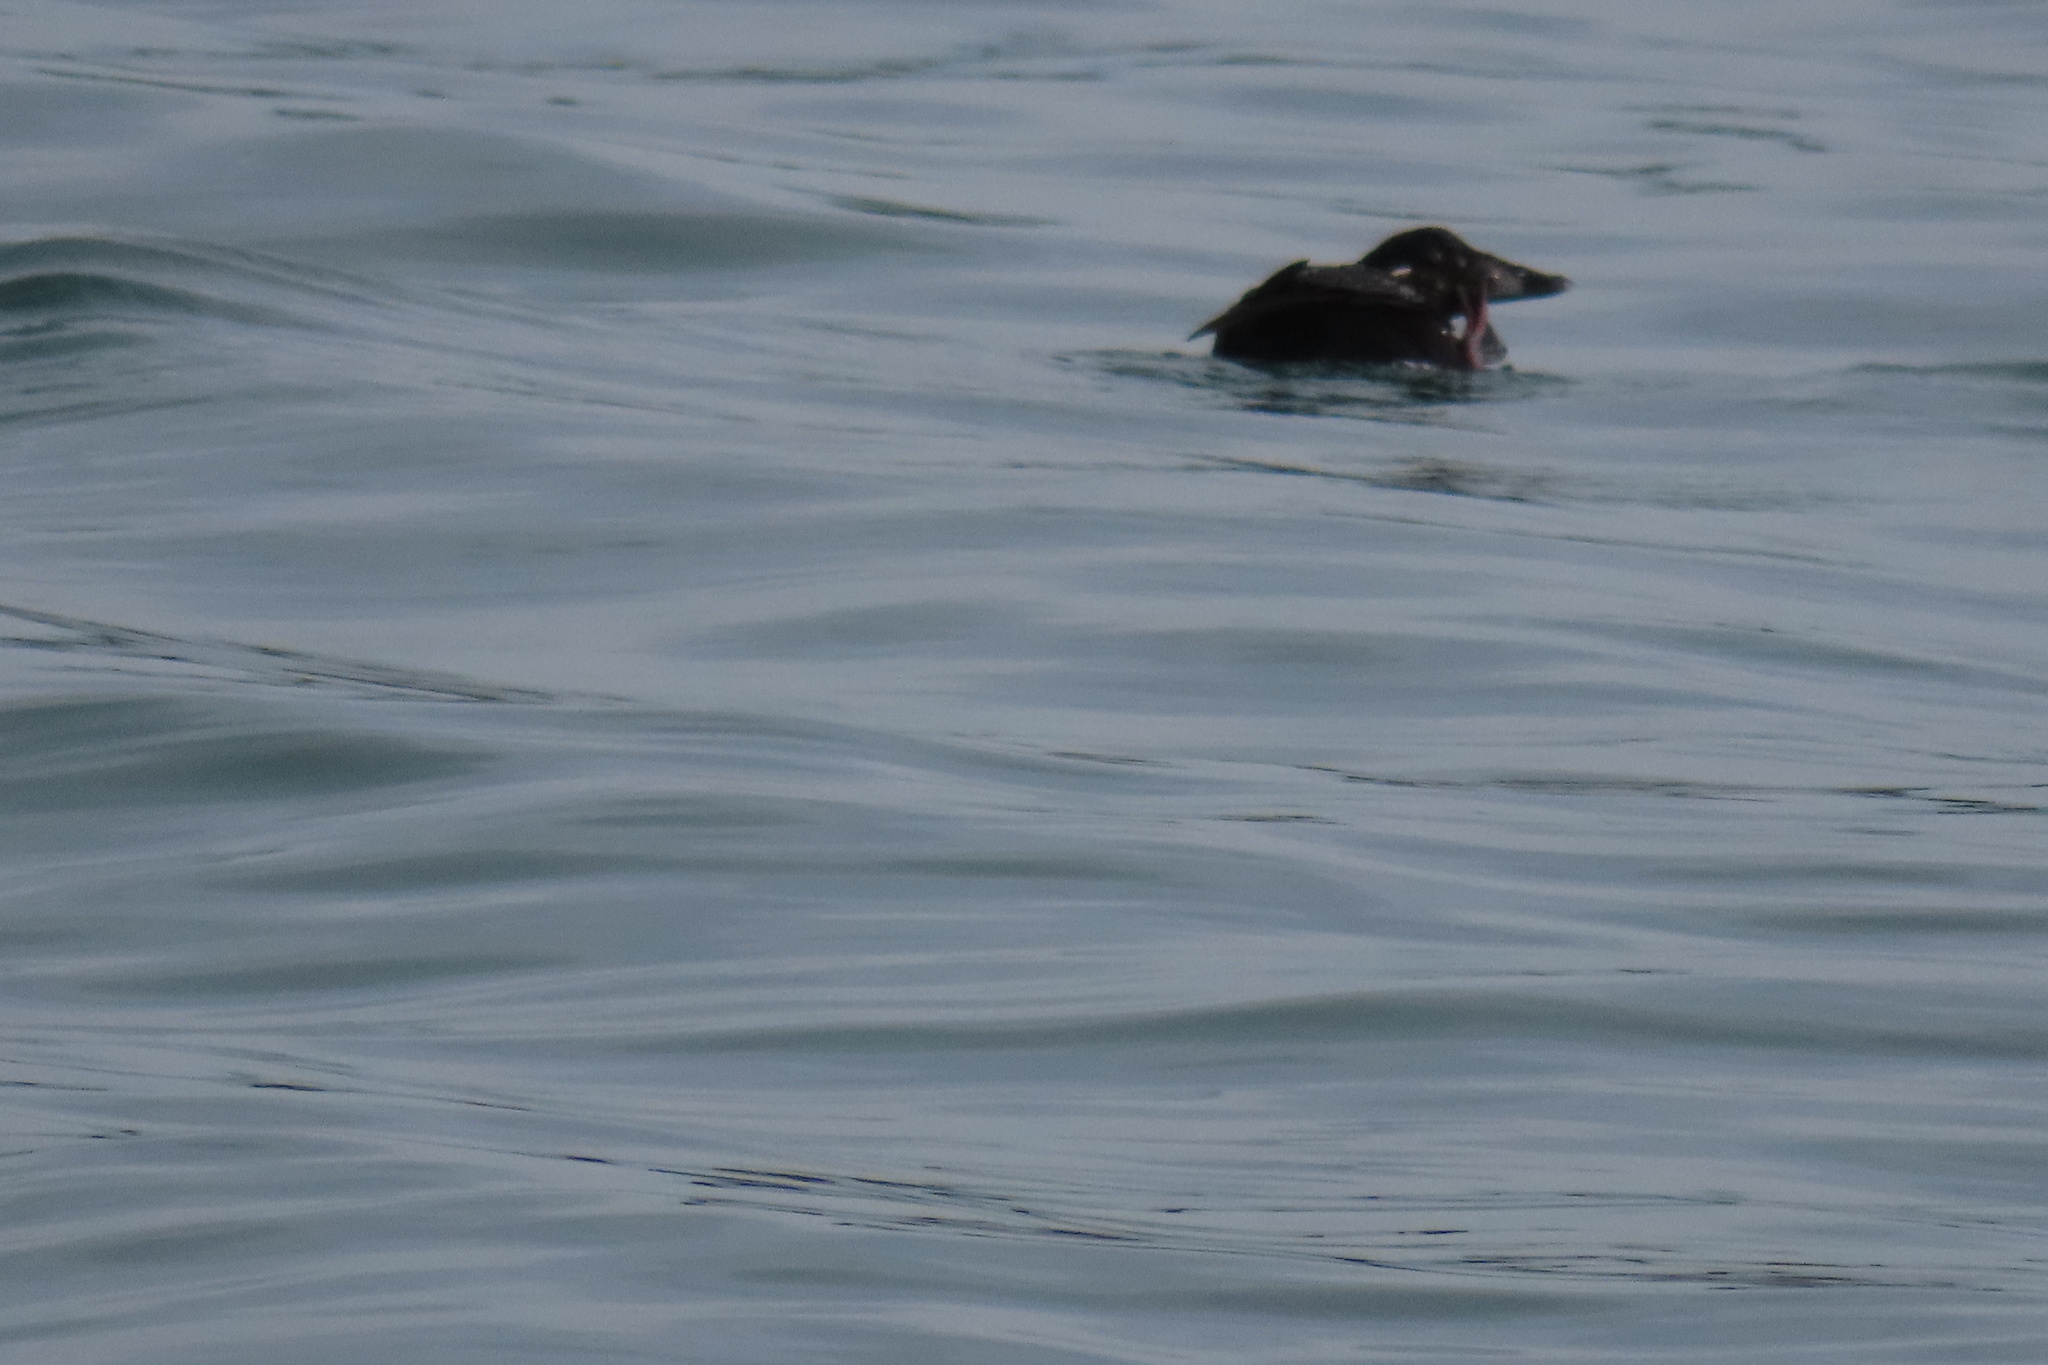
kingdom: Animalia
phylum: Chordata
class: Aves
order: Anseriformes
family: Anatidae
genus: Melanitta
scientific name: Melanitta perspicillata
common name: Surf scoter
